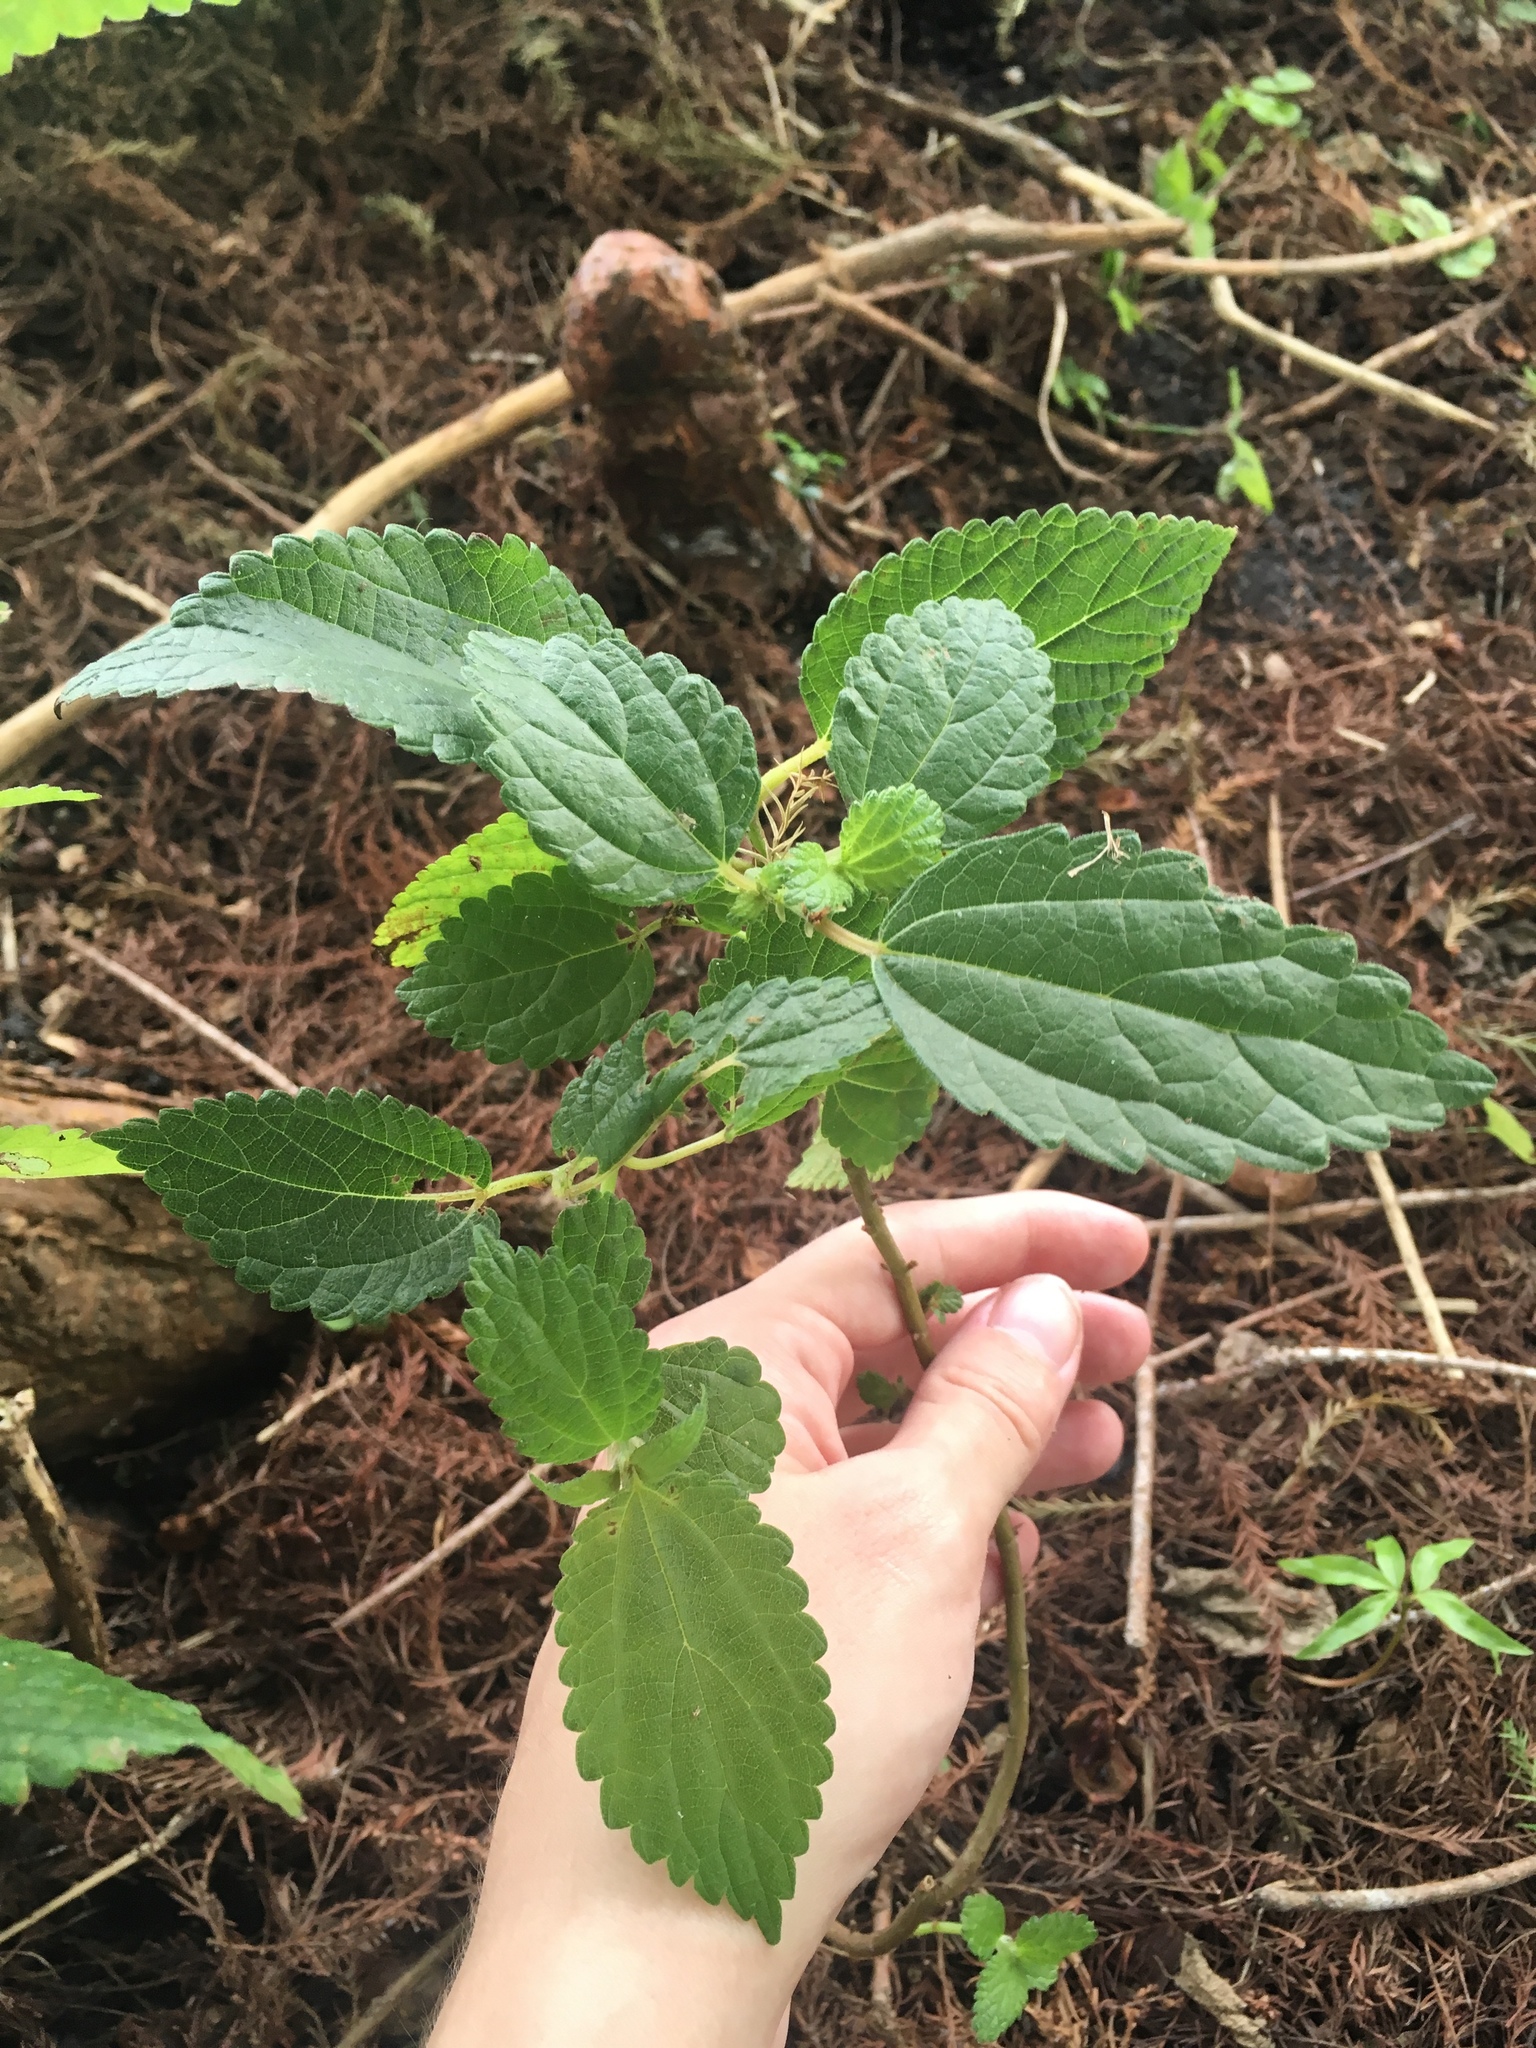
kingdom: Plantae
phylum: Tracheophyta
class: Magnoliopsida
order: Rosales
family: Urticaceae
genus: Boehmeria
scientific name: Boehmeria cylindrica
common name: Bog-hemp
